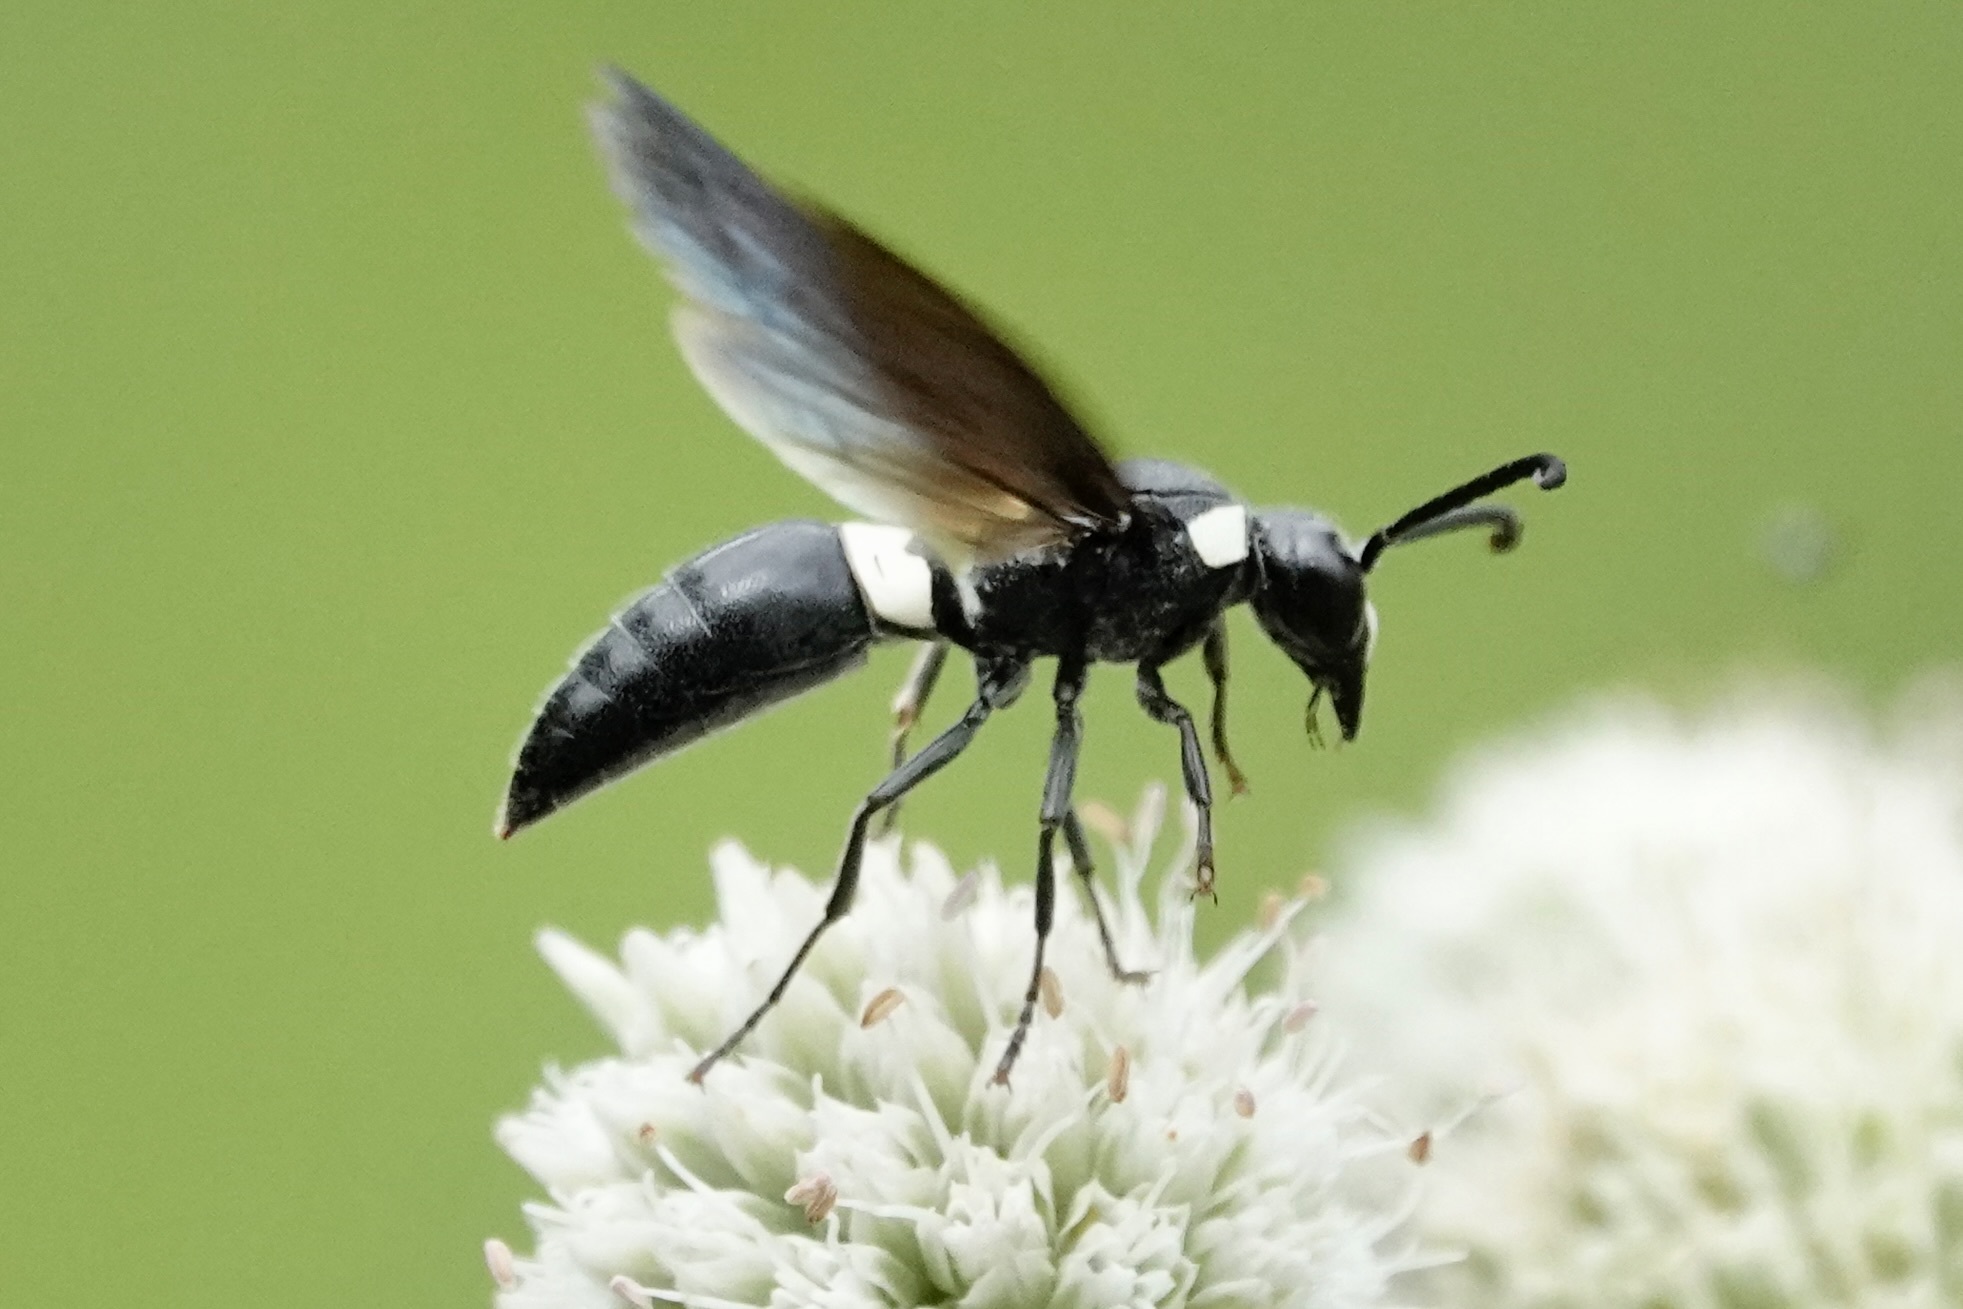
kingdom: Animalia
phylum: Arthropoda
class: Insecta
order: Hymenoptera
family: Eumenidae
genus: Monobia
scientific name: Monobia quadridens
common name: Four-toothed mason wasp
